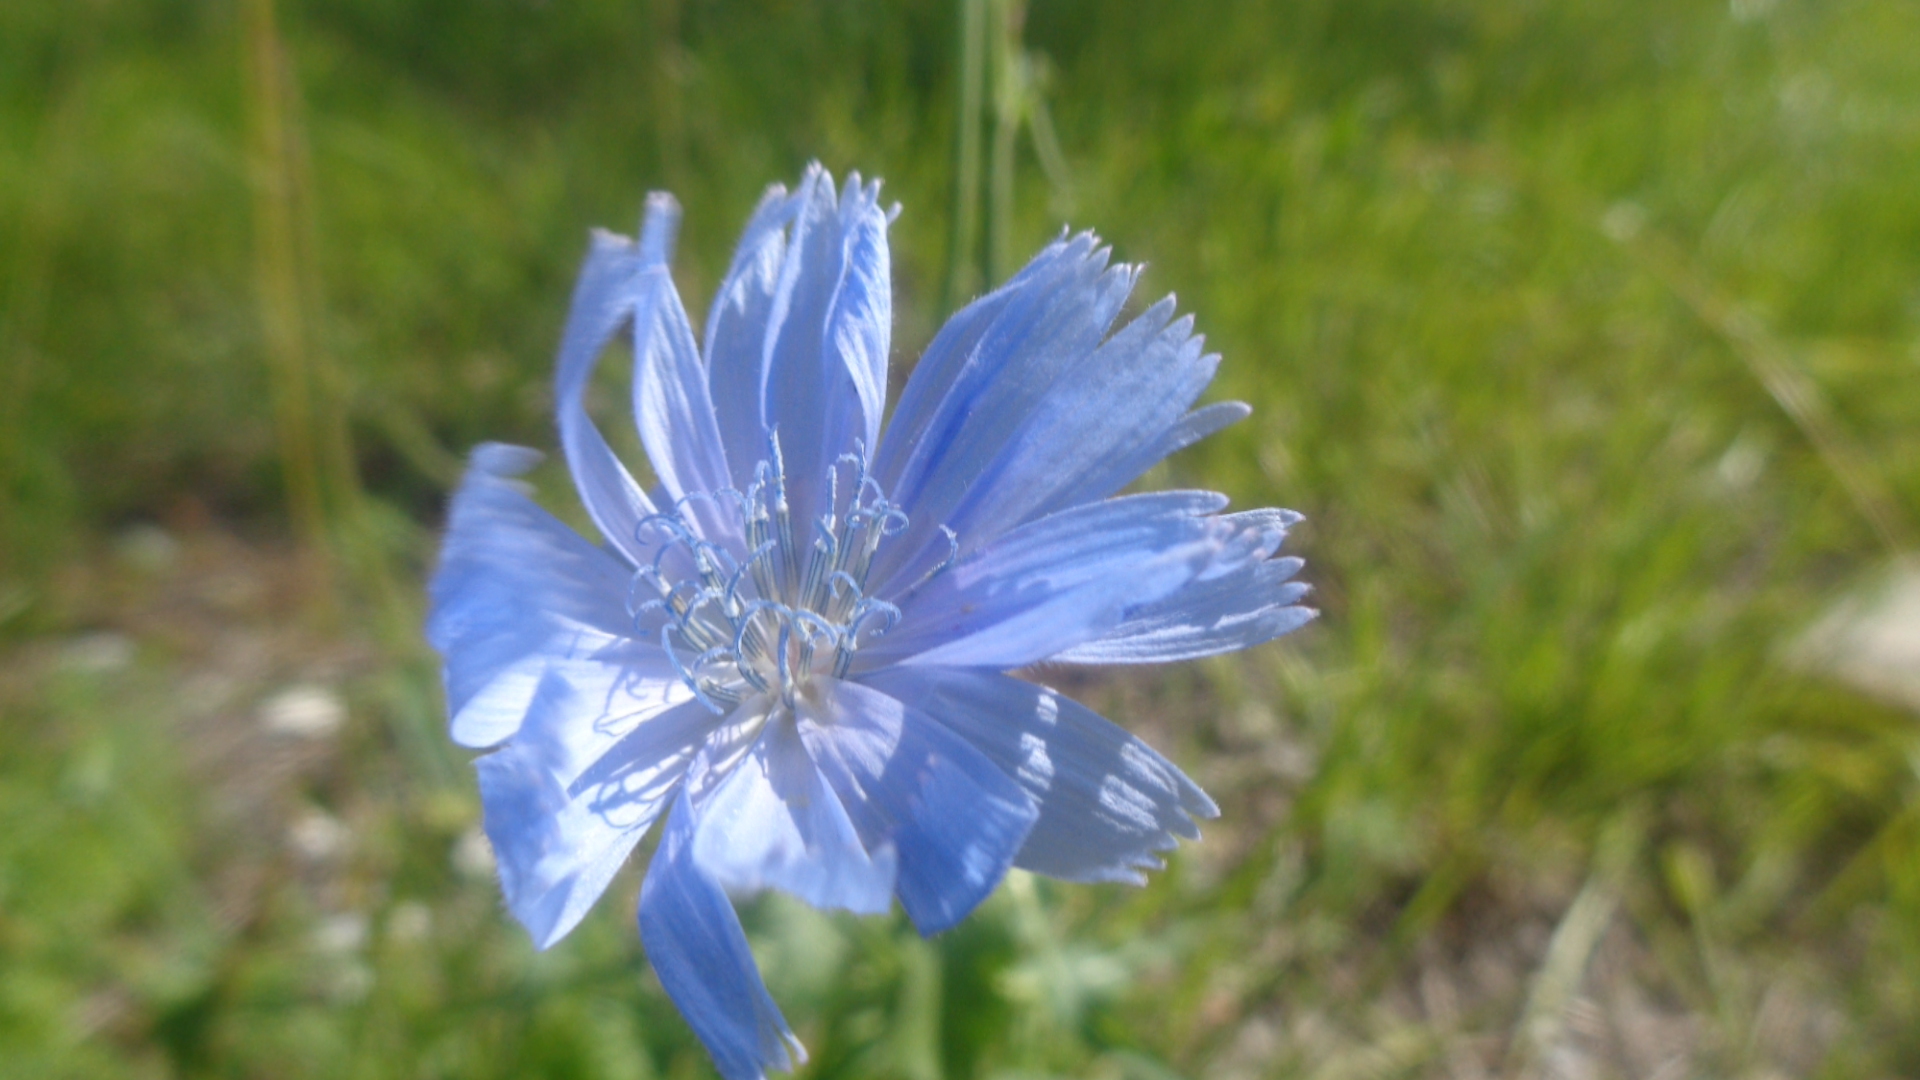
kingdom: Plantae
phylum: Tracheophyta
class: Magnoliopsida
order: Asterales
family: Asteraceae
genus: Cichorium
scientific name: Cichorium intybus
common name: Chicory
